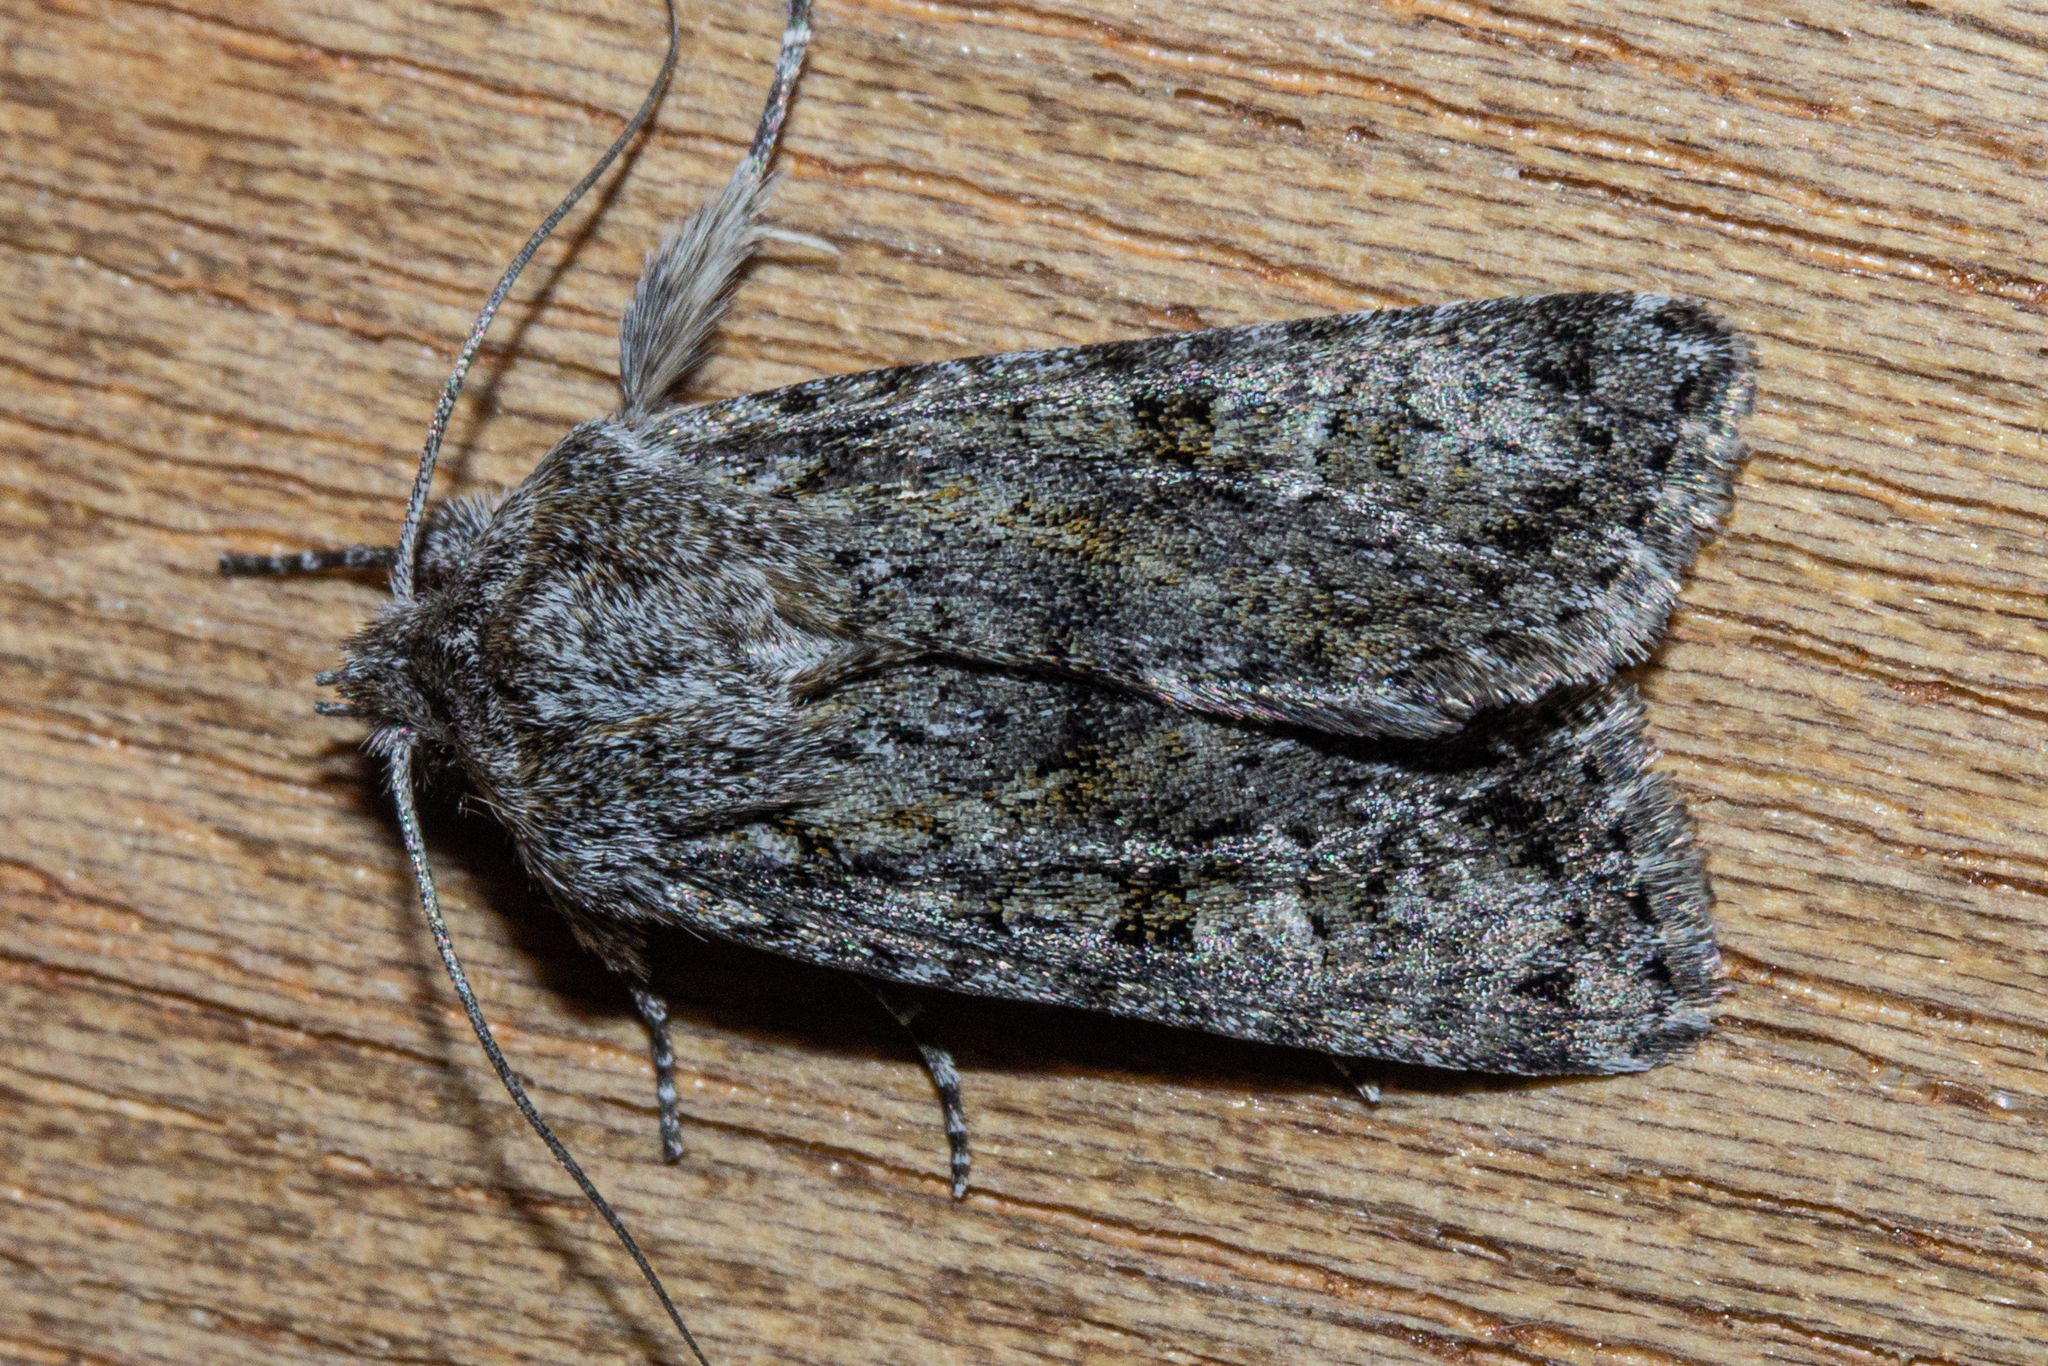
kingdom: Animalia
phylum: Arthropoda
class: Insecta
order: Lepidoptera
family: Noctuidae
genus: Physetica
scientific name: Physetica cucullina
